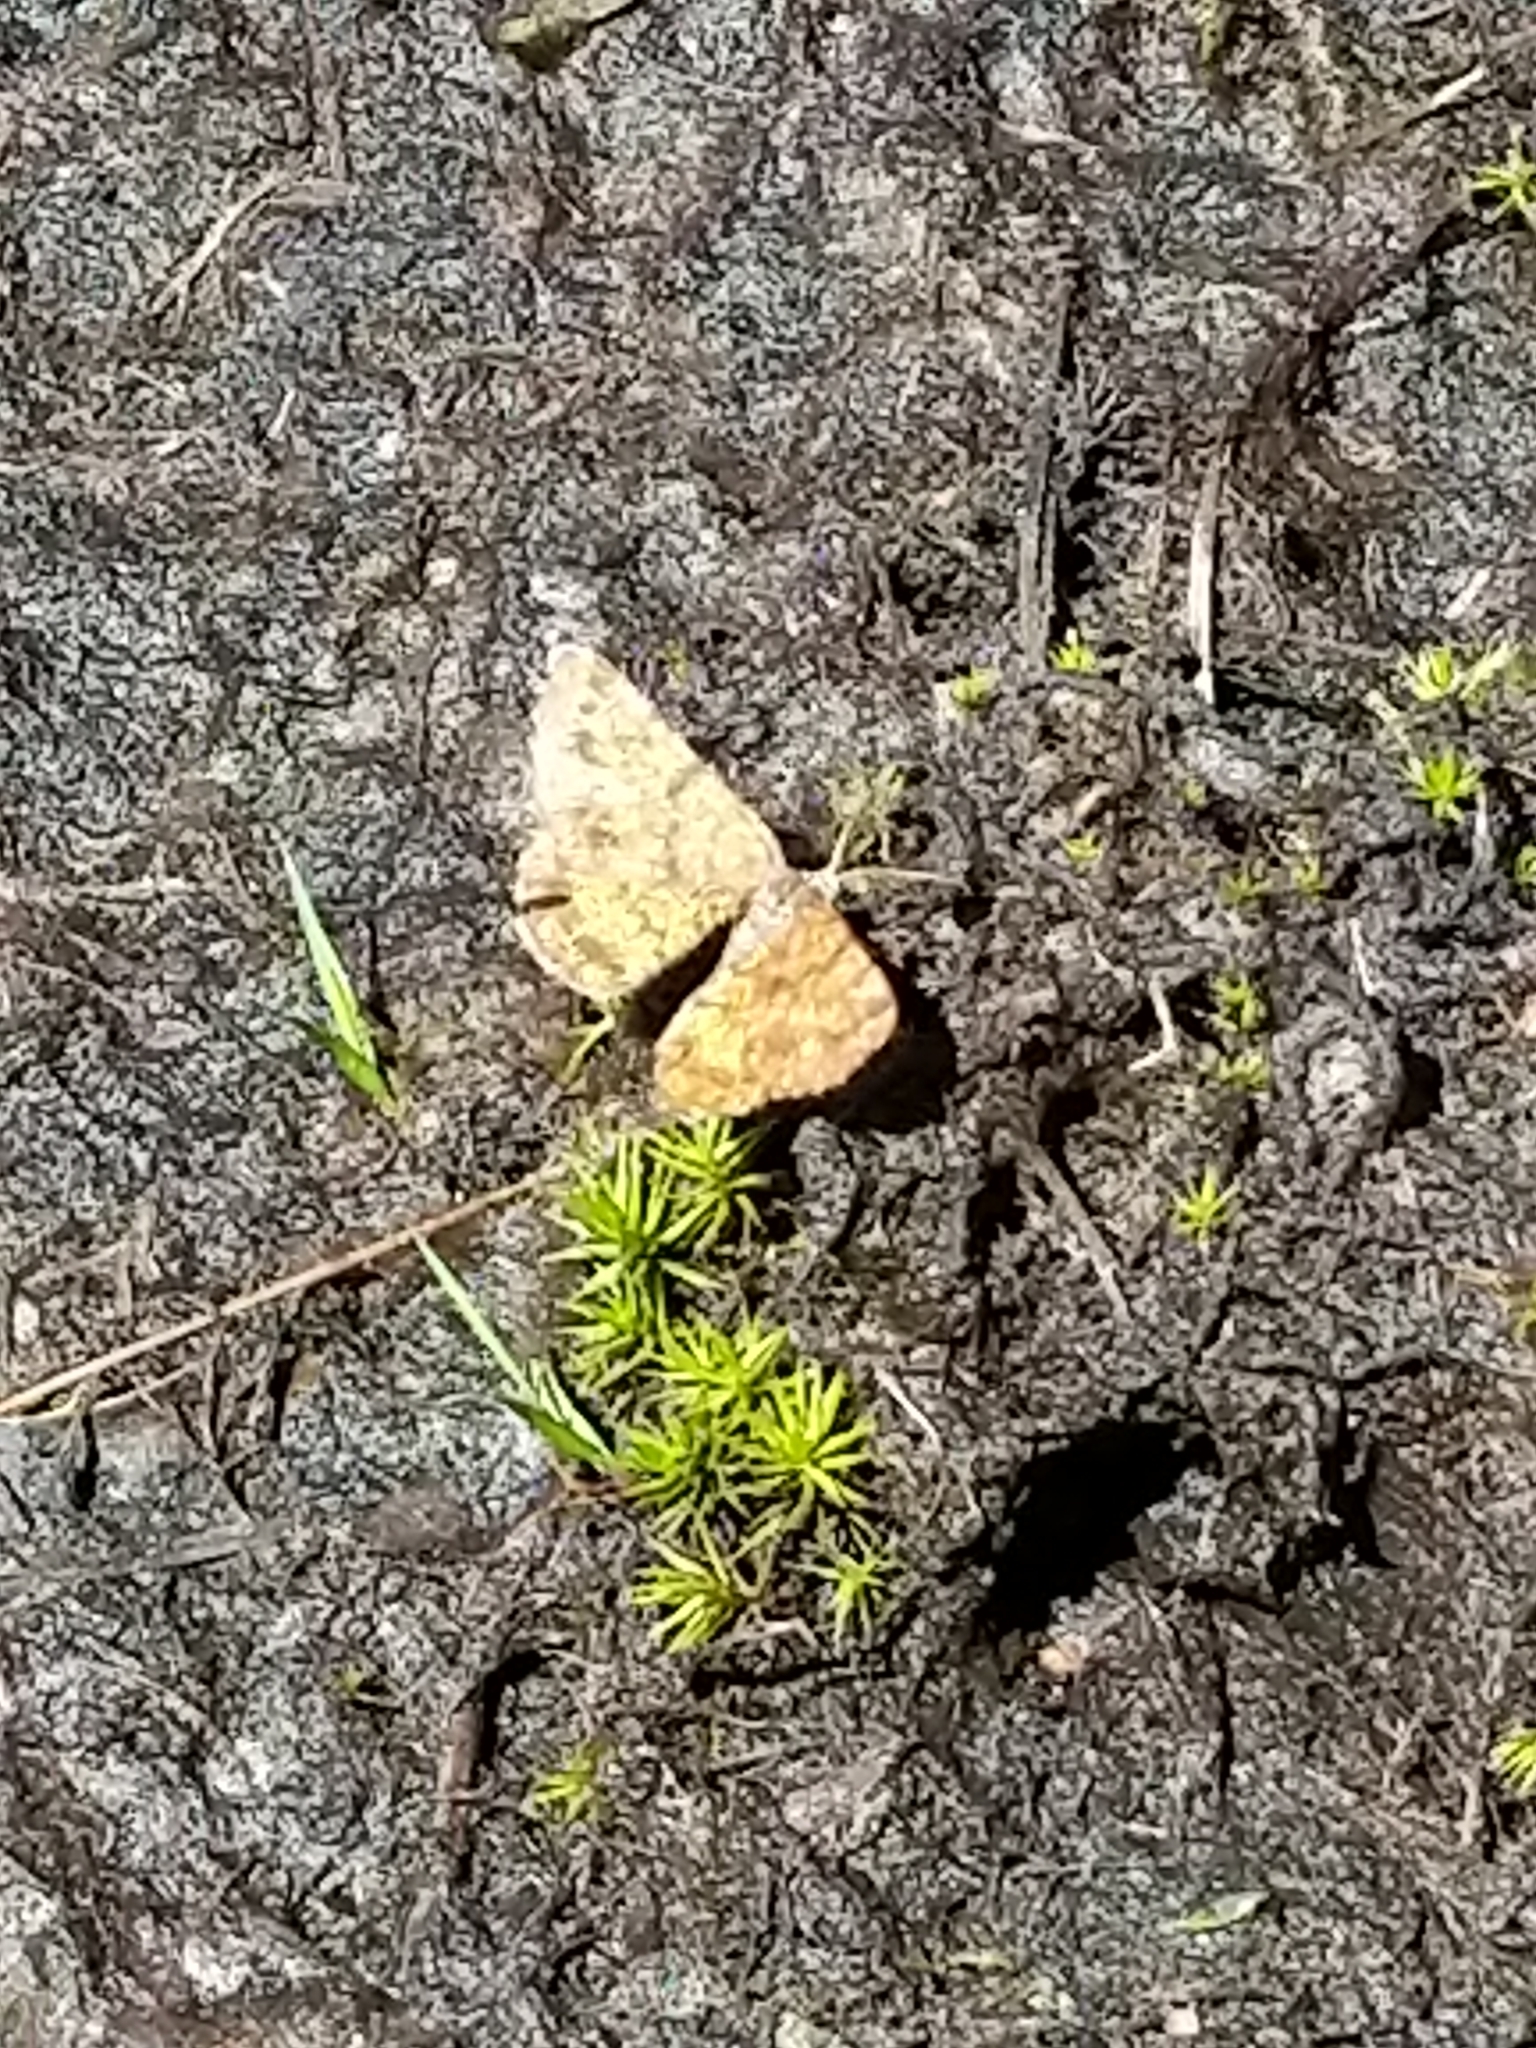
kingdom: Animalia
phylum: Arthropoda
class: Insecta
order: Lepidoptera
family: Geometridae
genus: Ematurga
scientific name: Ematurga amitaria
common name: Cranberry spanworm moth
